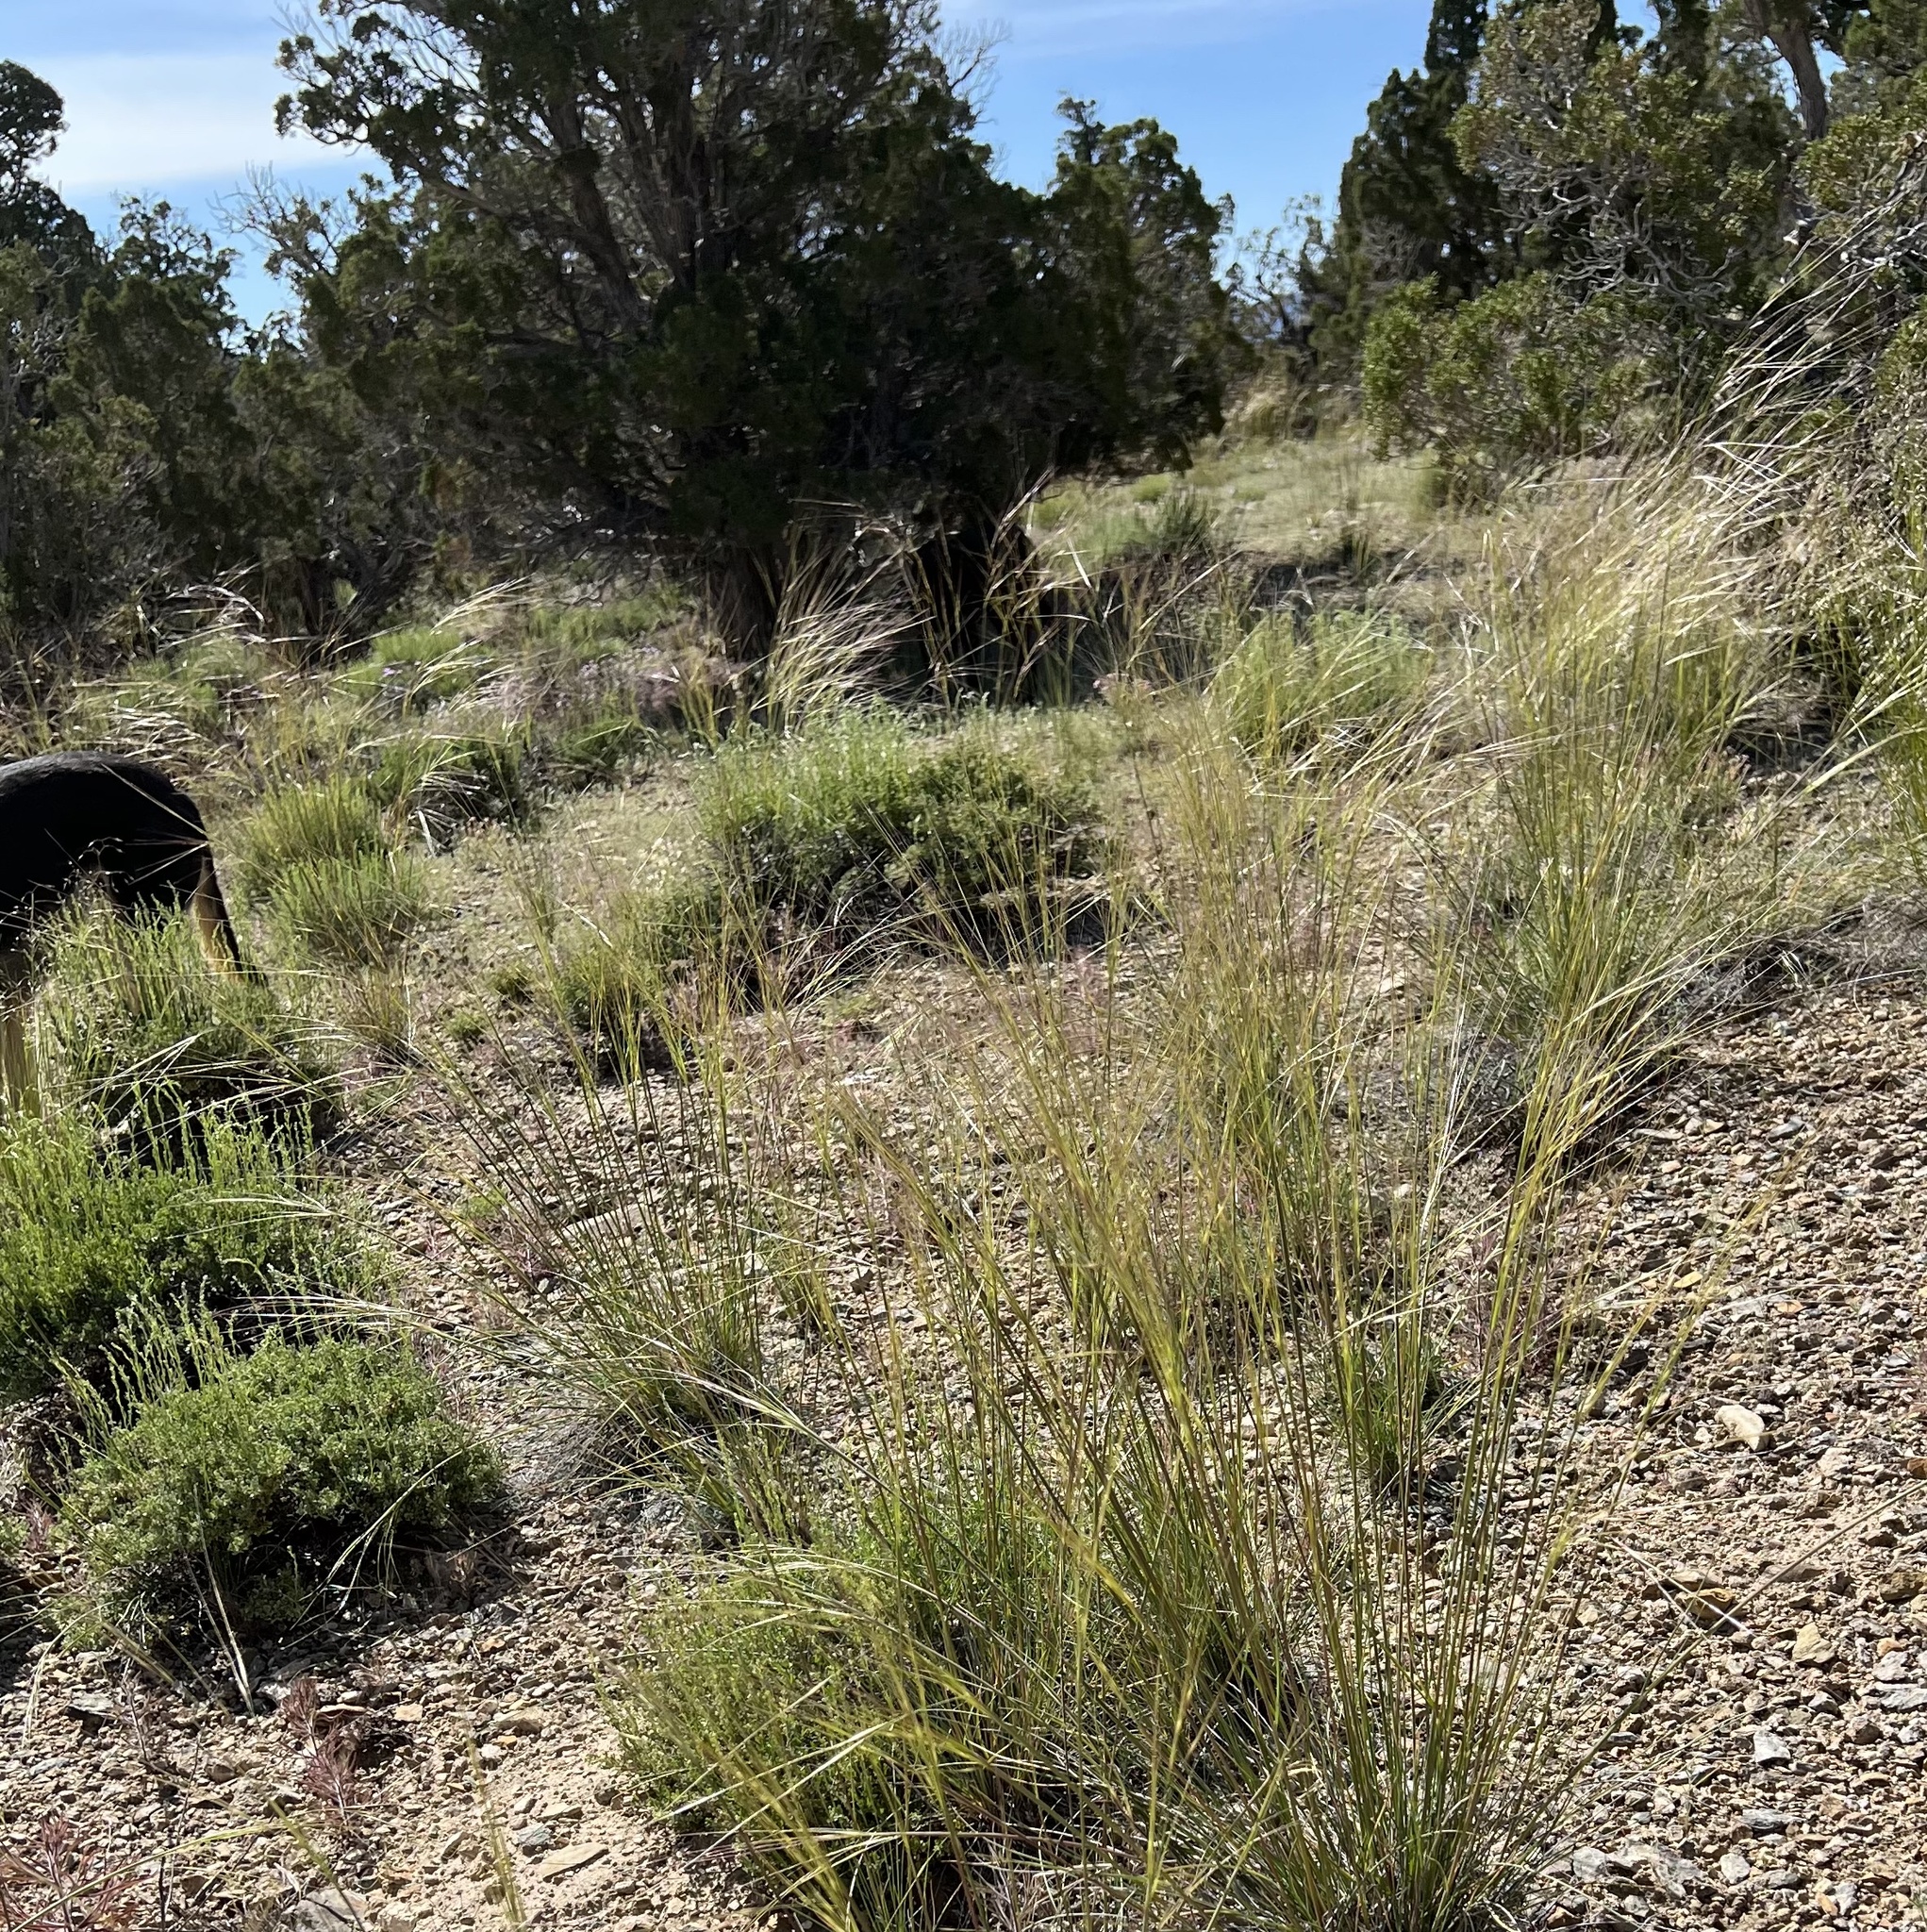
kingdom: Plantae
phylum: Tracheophyta
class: Liliopsida
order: Poales
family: Poaceae
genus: Hesperostipa
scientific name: Hesperostipa comata
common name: Needle-and-thread grass
